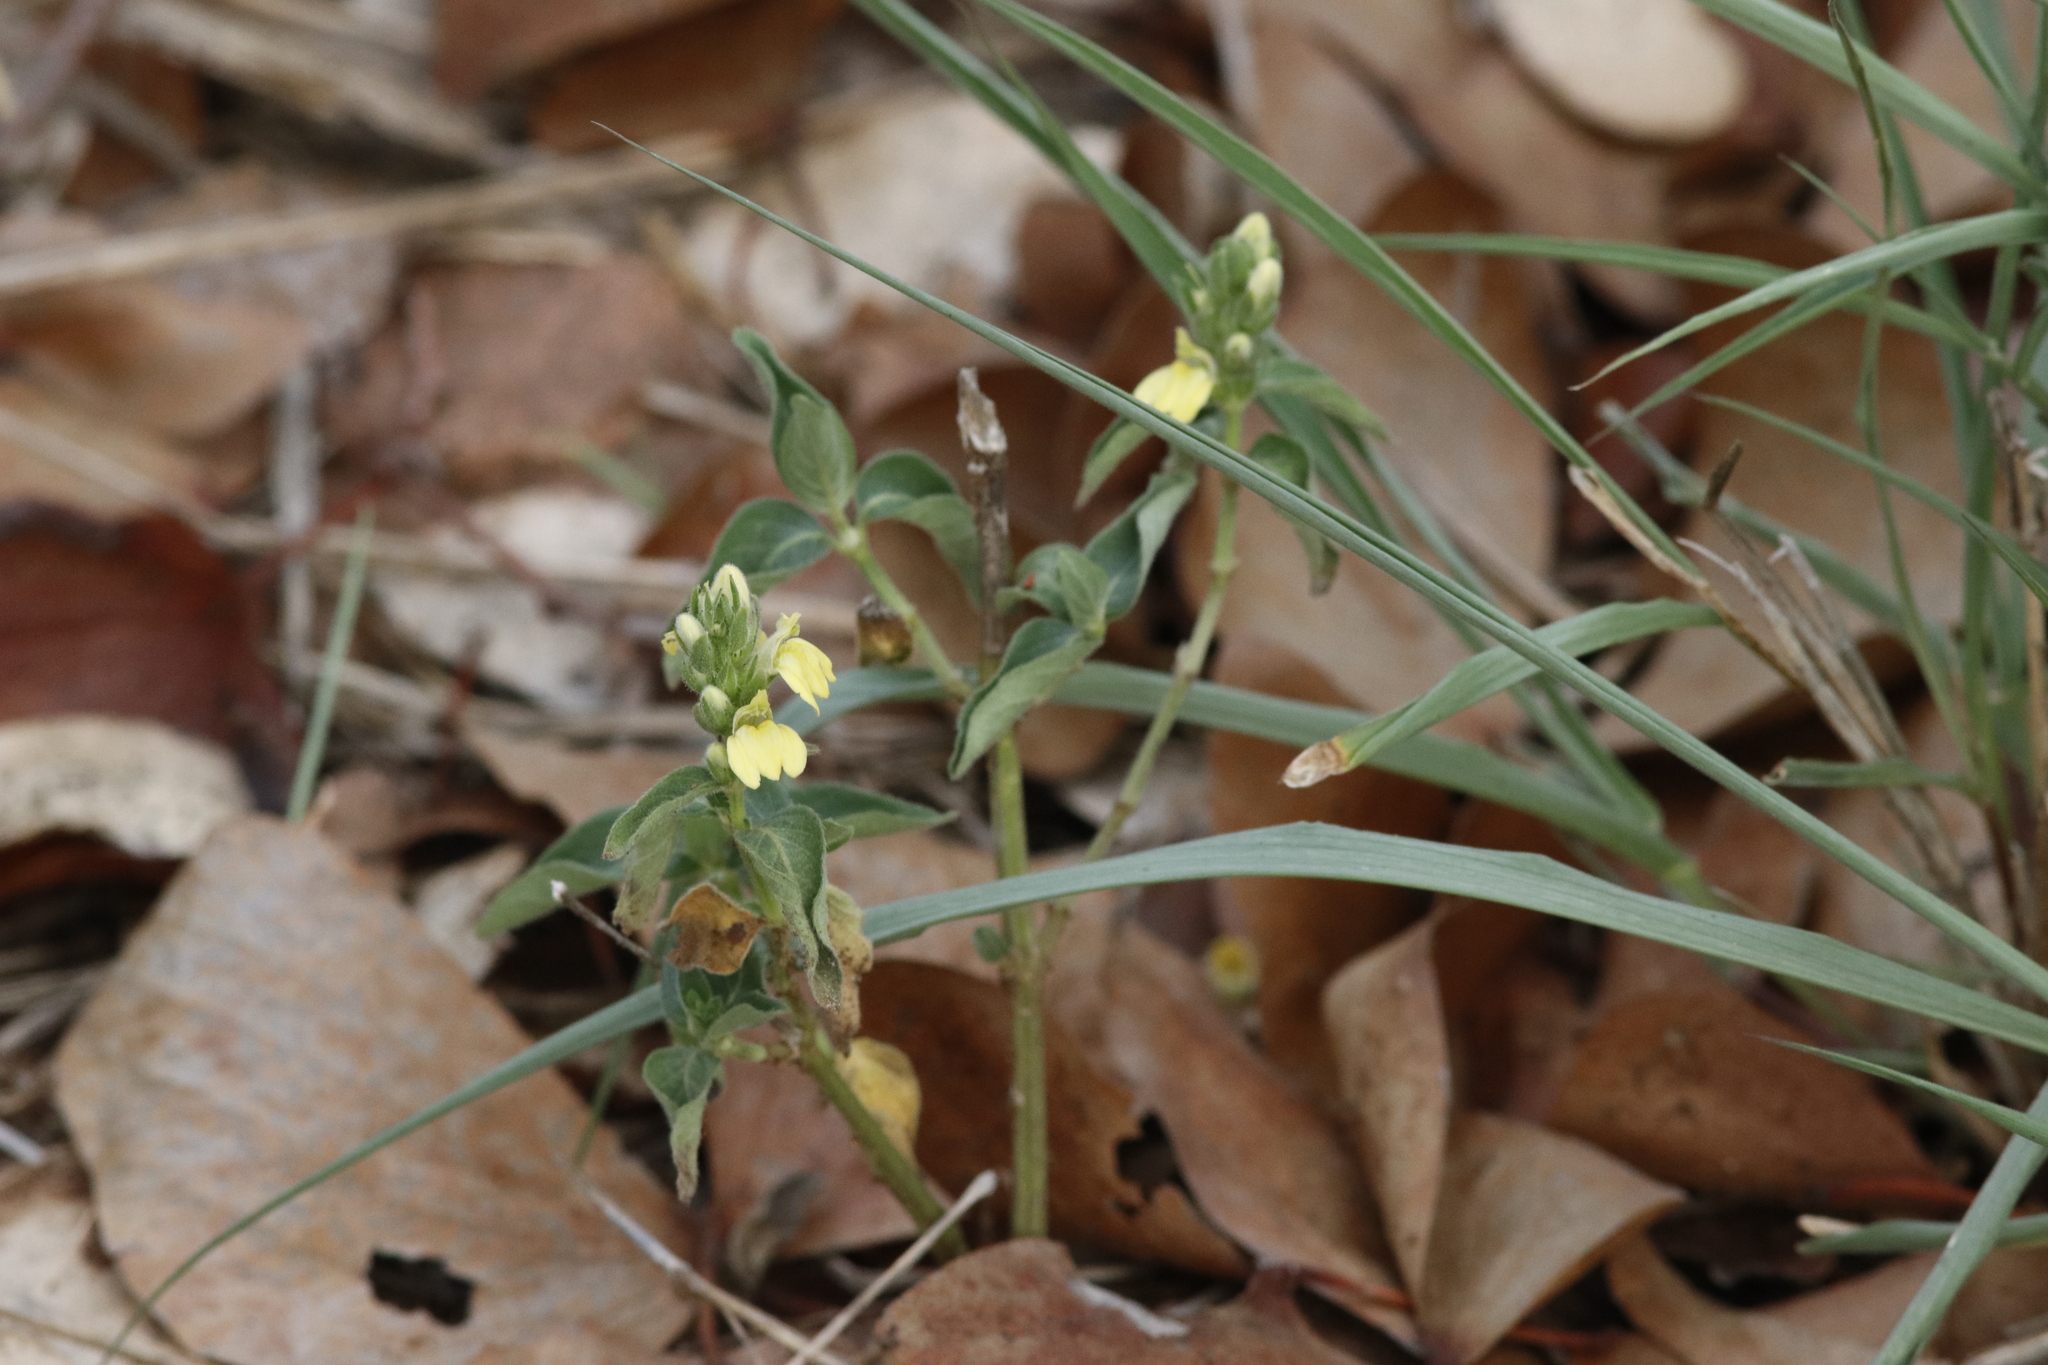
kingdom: Plantae
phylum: Tracheophyta
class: Magnoliopsida
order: Lamiales
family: Acanthaceae
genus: Justicia
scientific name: Justicia flava
